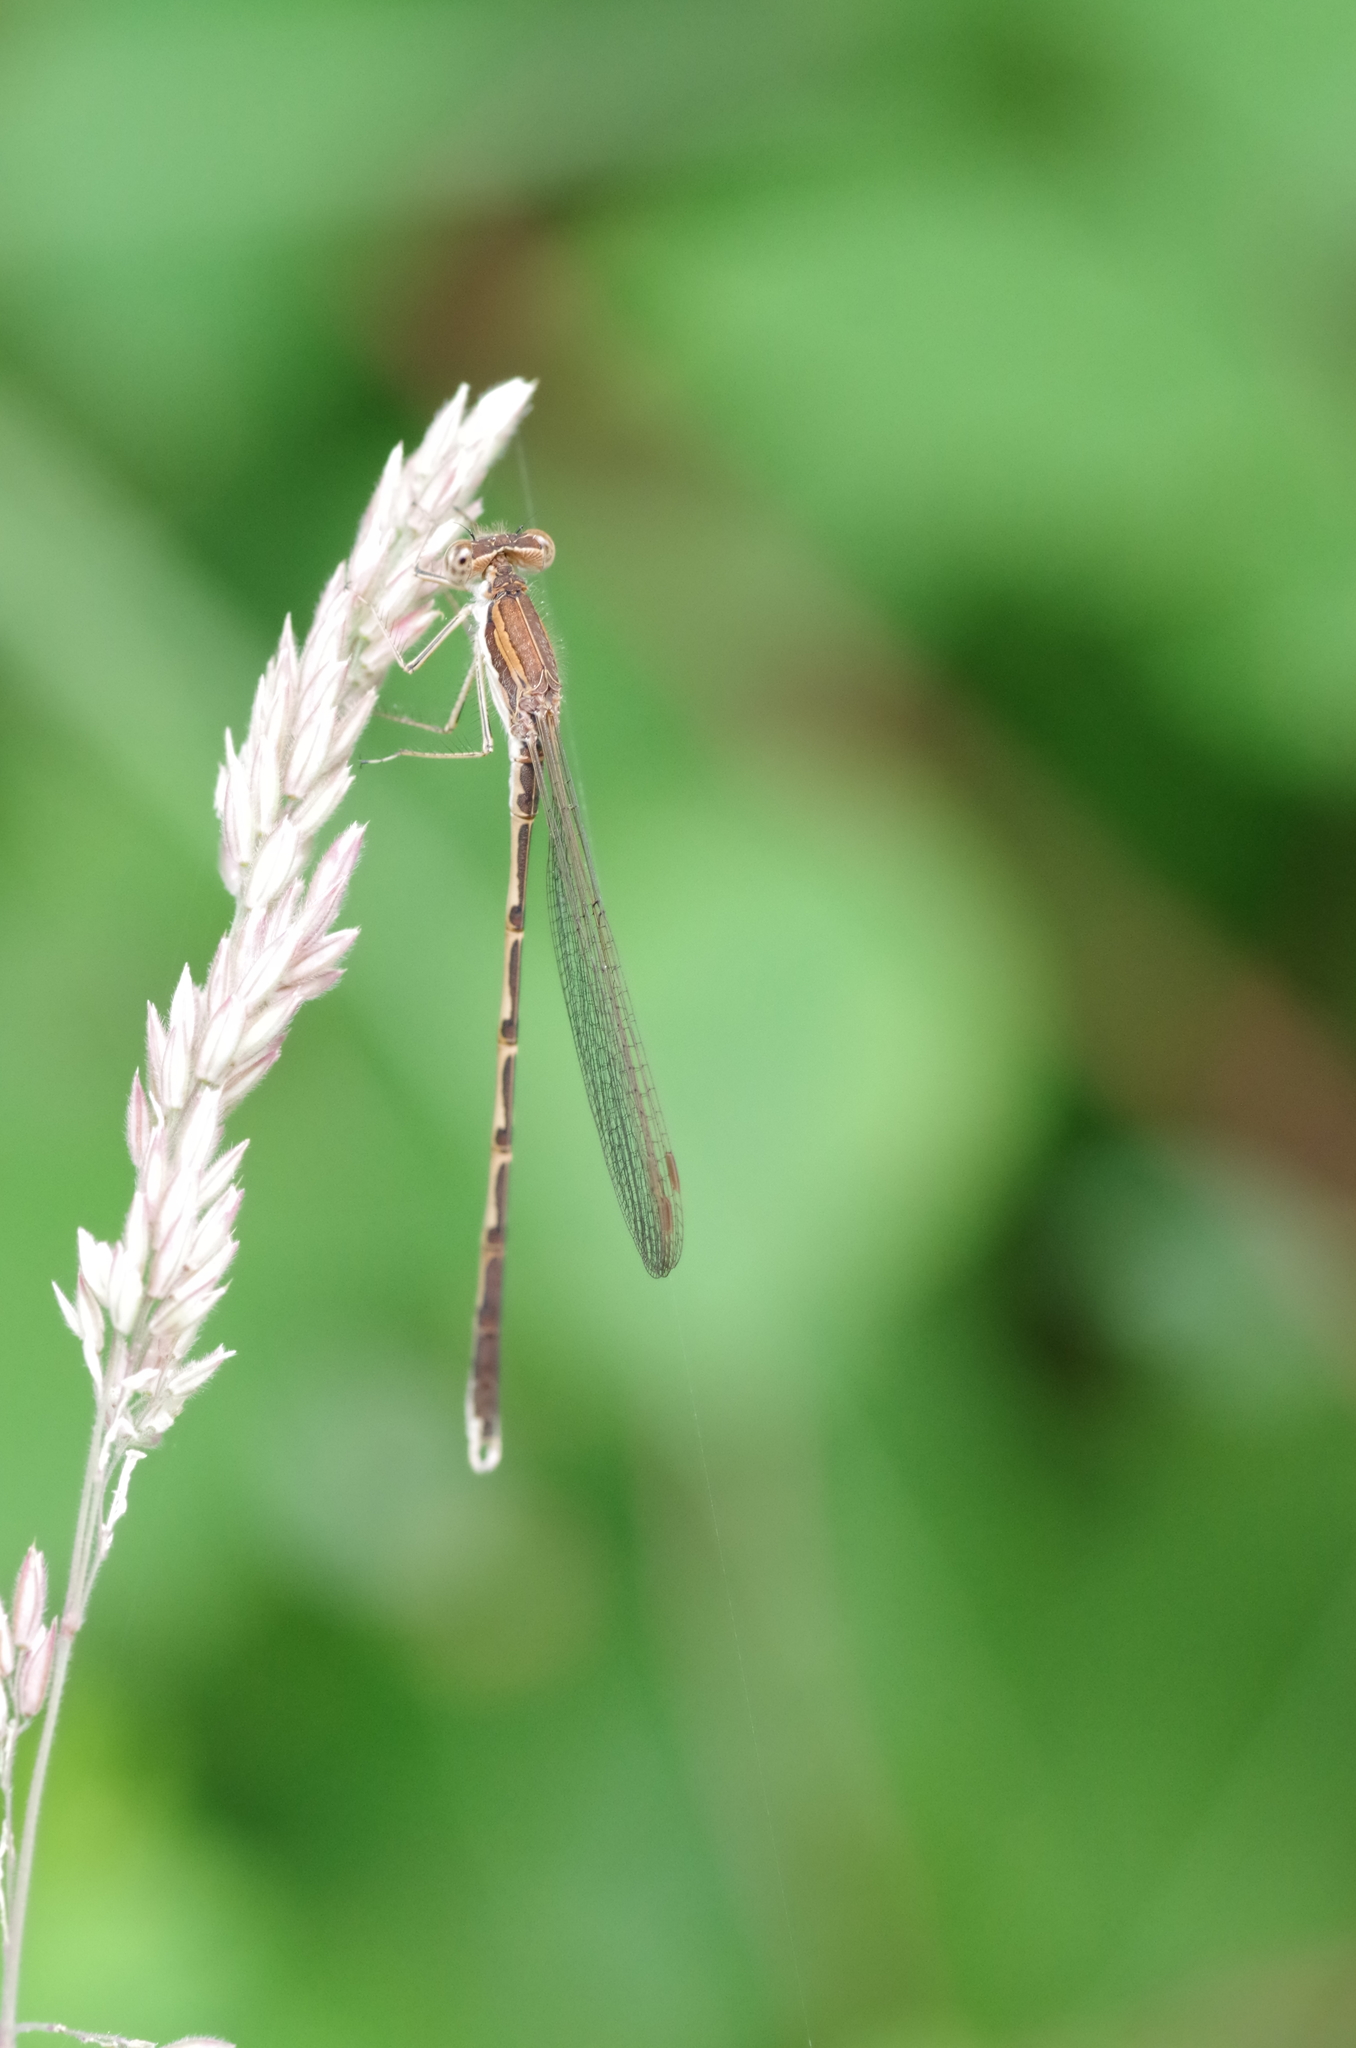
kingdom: Animalia
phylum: Arthropoda
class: Insecta
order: Odonata
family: Lestidae
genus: Sympecma
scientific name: Sympecma fusca
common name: Common winter damsel
